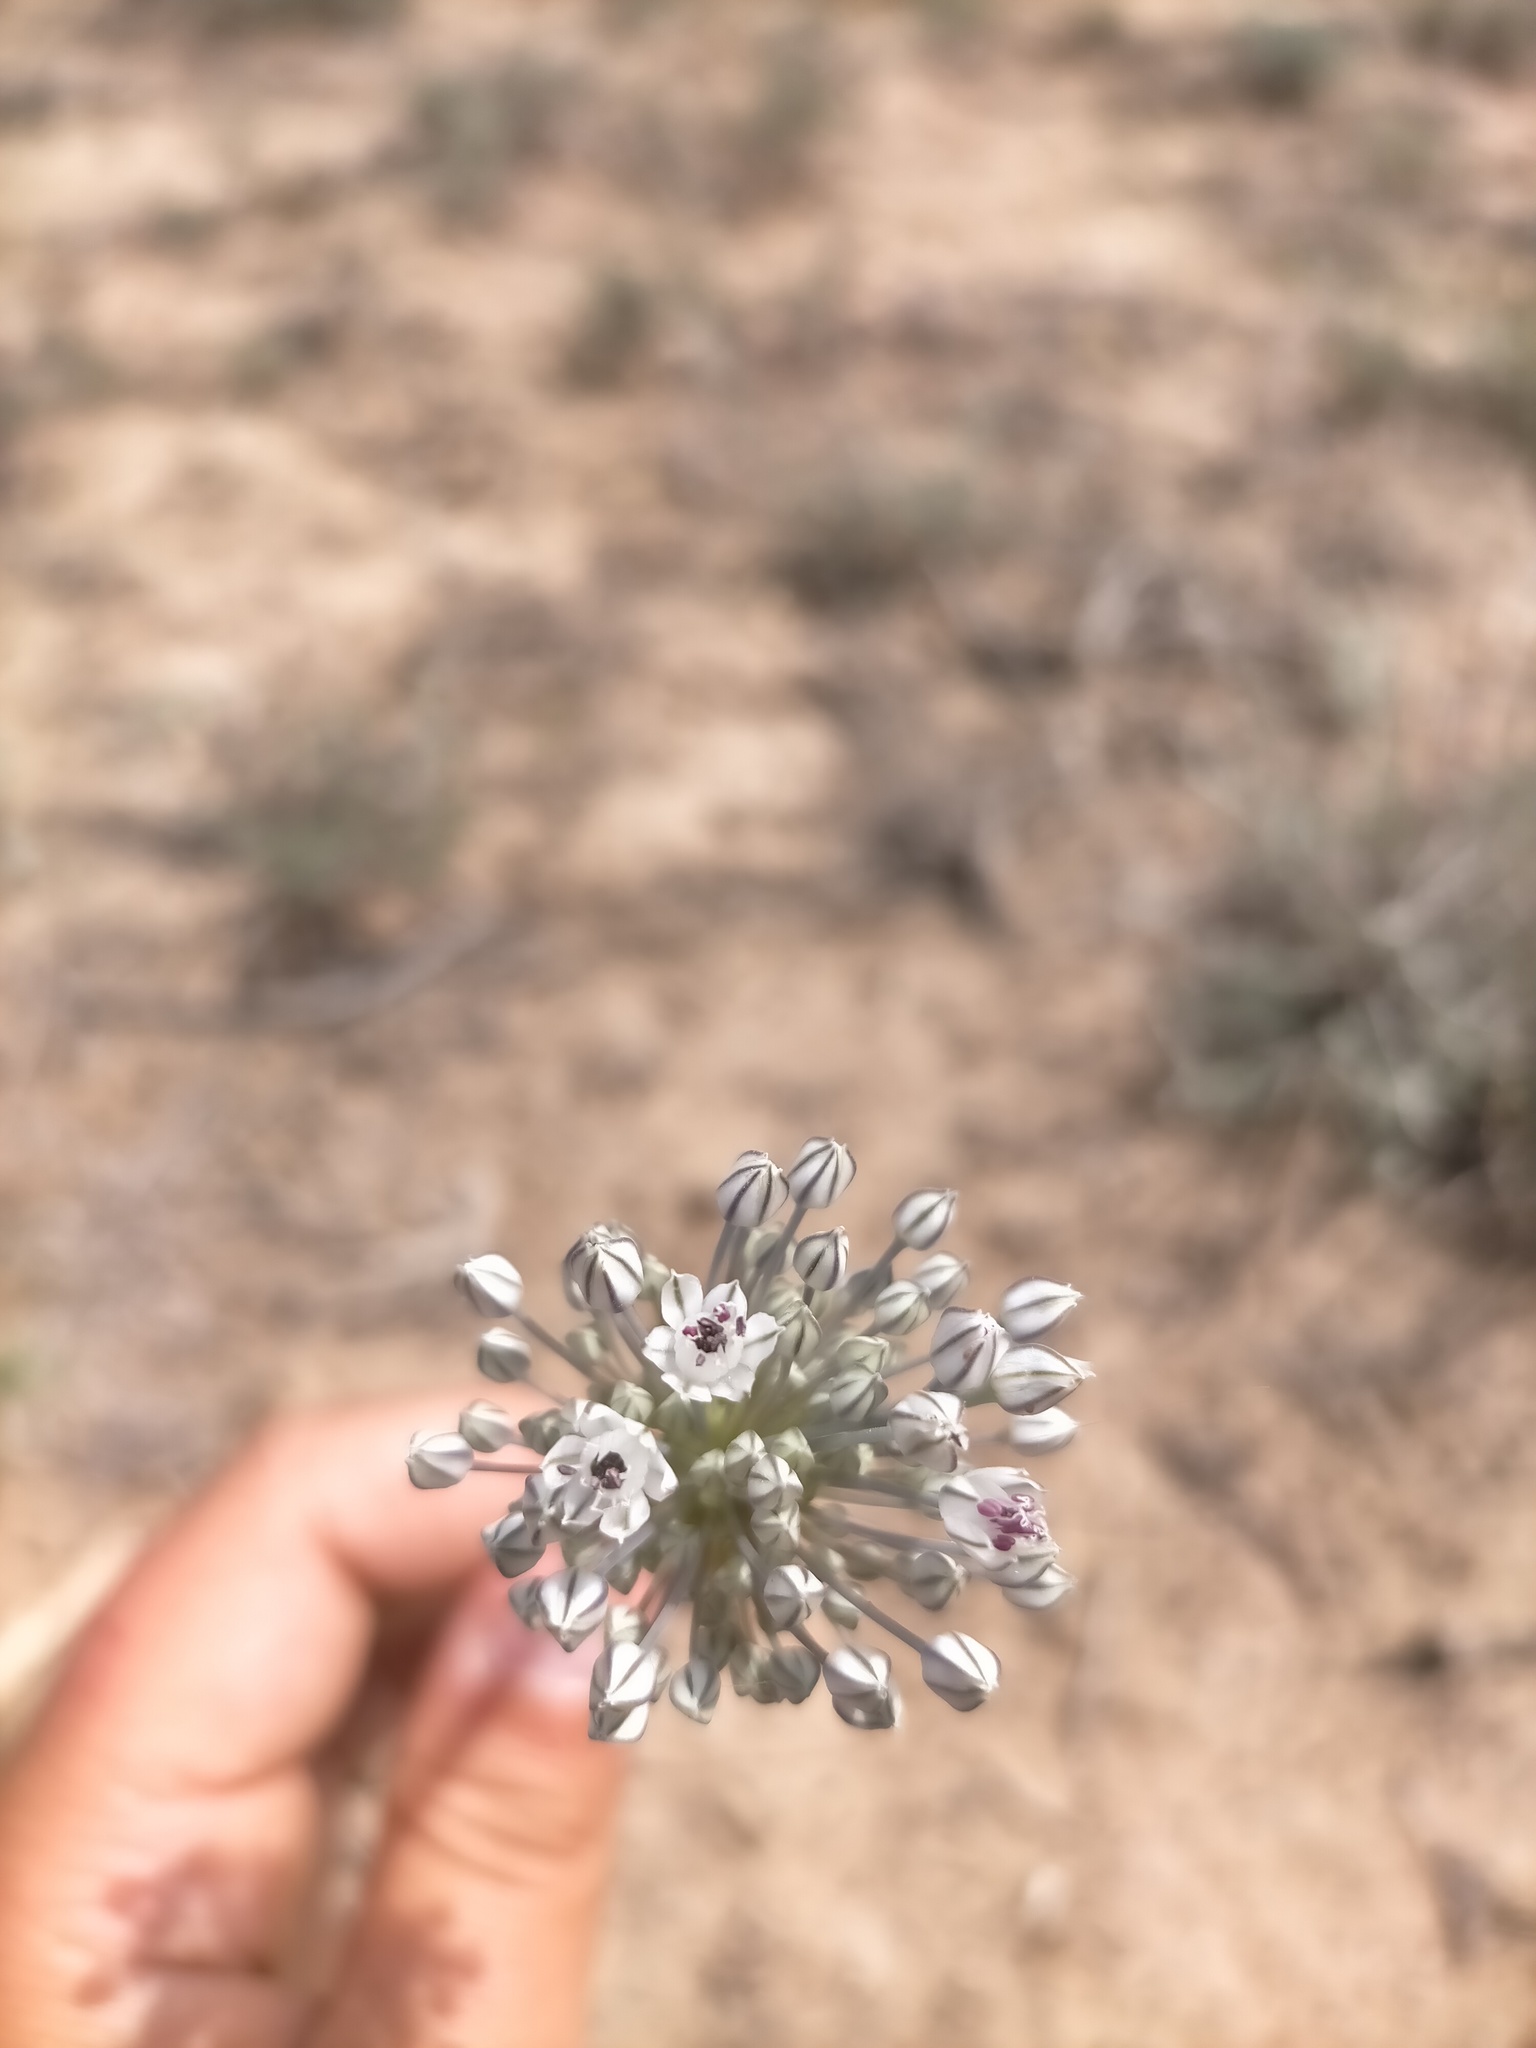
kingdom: Plantae
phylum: Tracheophyta
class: Liliopsida
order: Asparagales
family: Amaryllidaceae
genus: Allium
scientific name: Allium filidens
